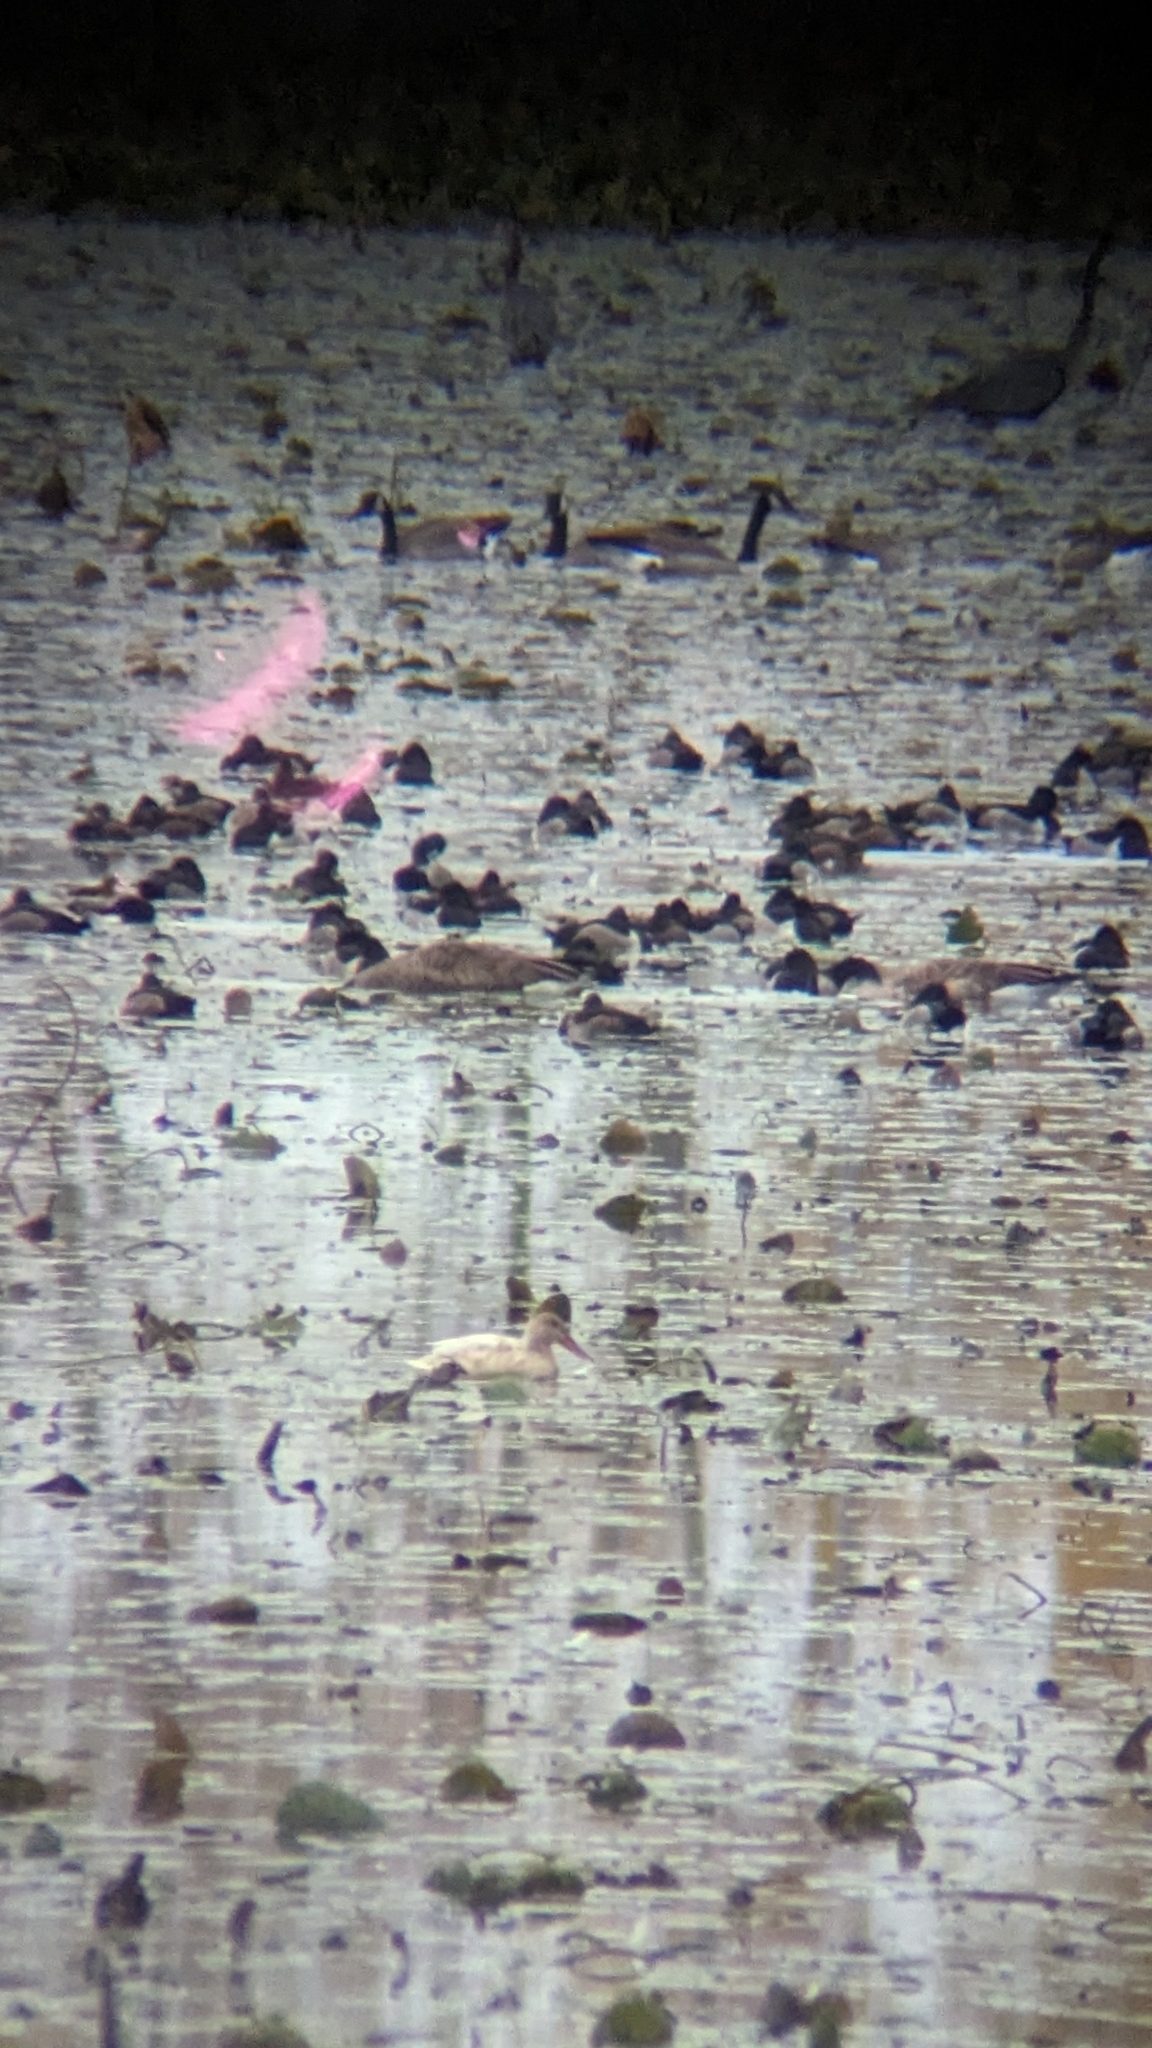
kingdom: Animalia
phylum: Chordata
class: Aves
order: Anseriformes
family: Anatidae
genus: Branta
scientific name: Branta canadensis
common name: Canada goose
